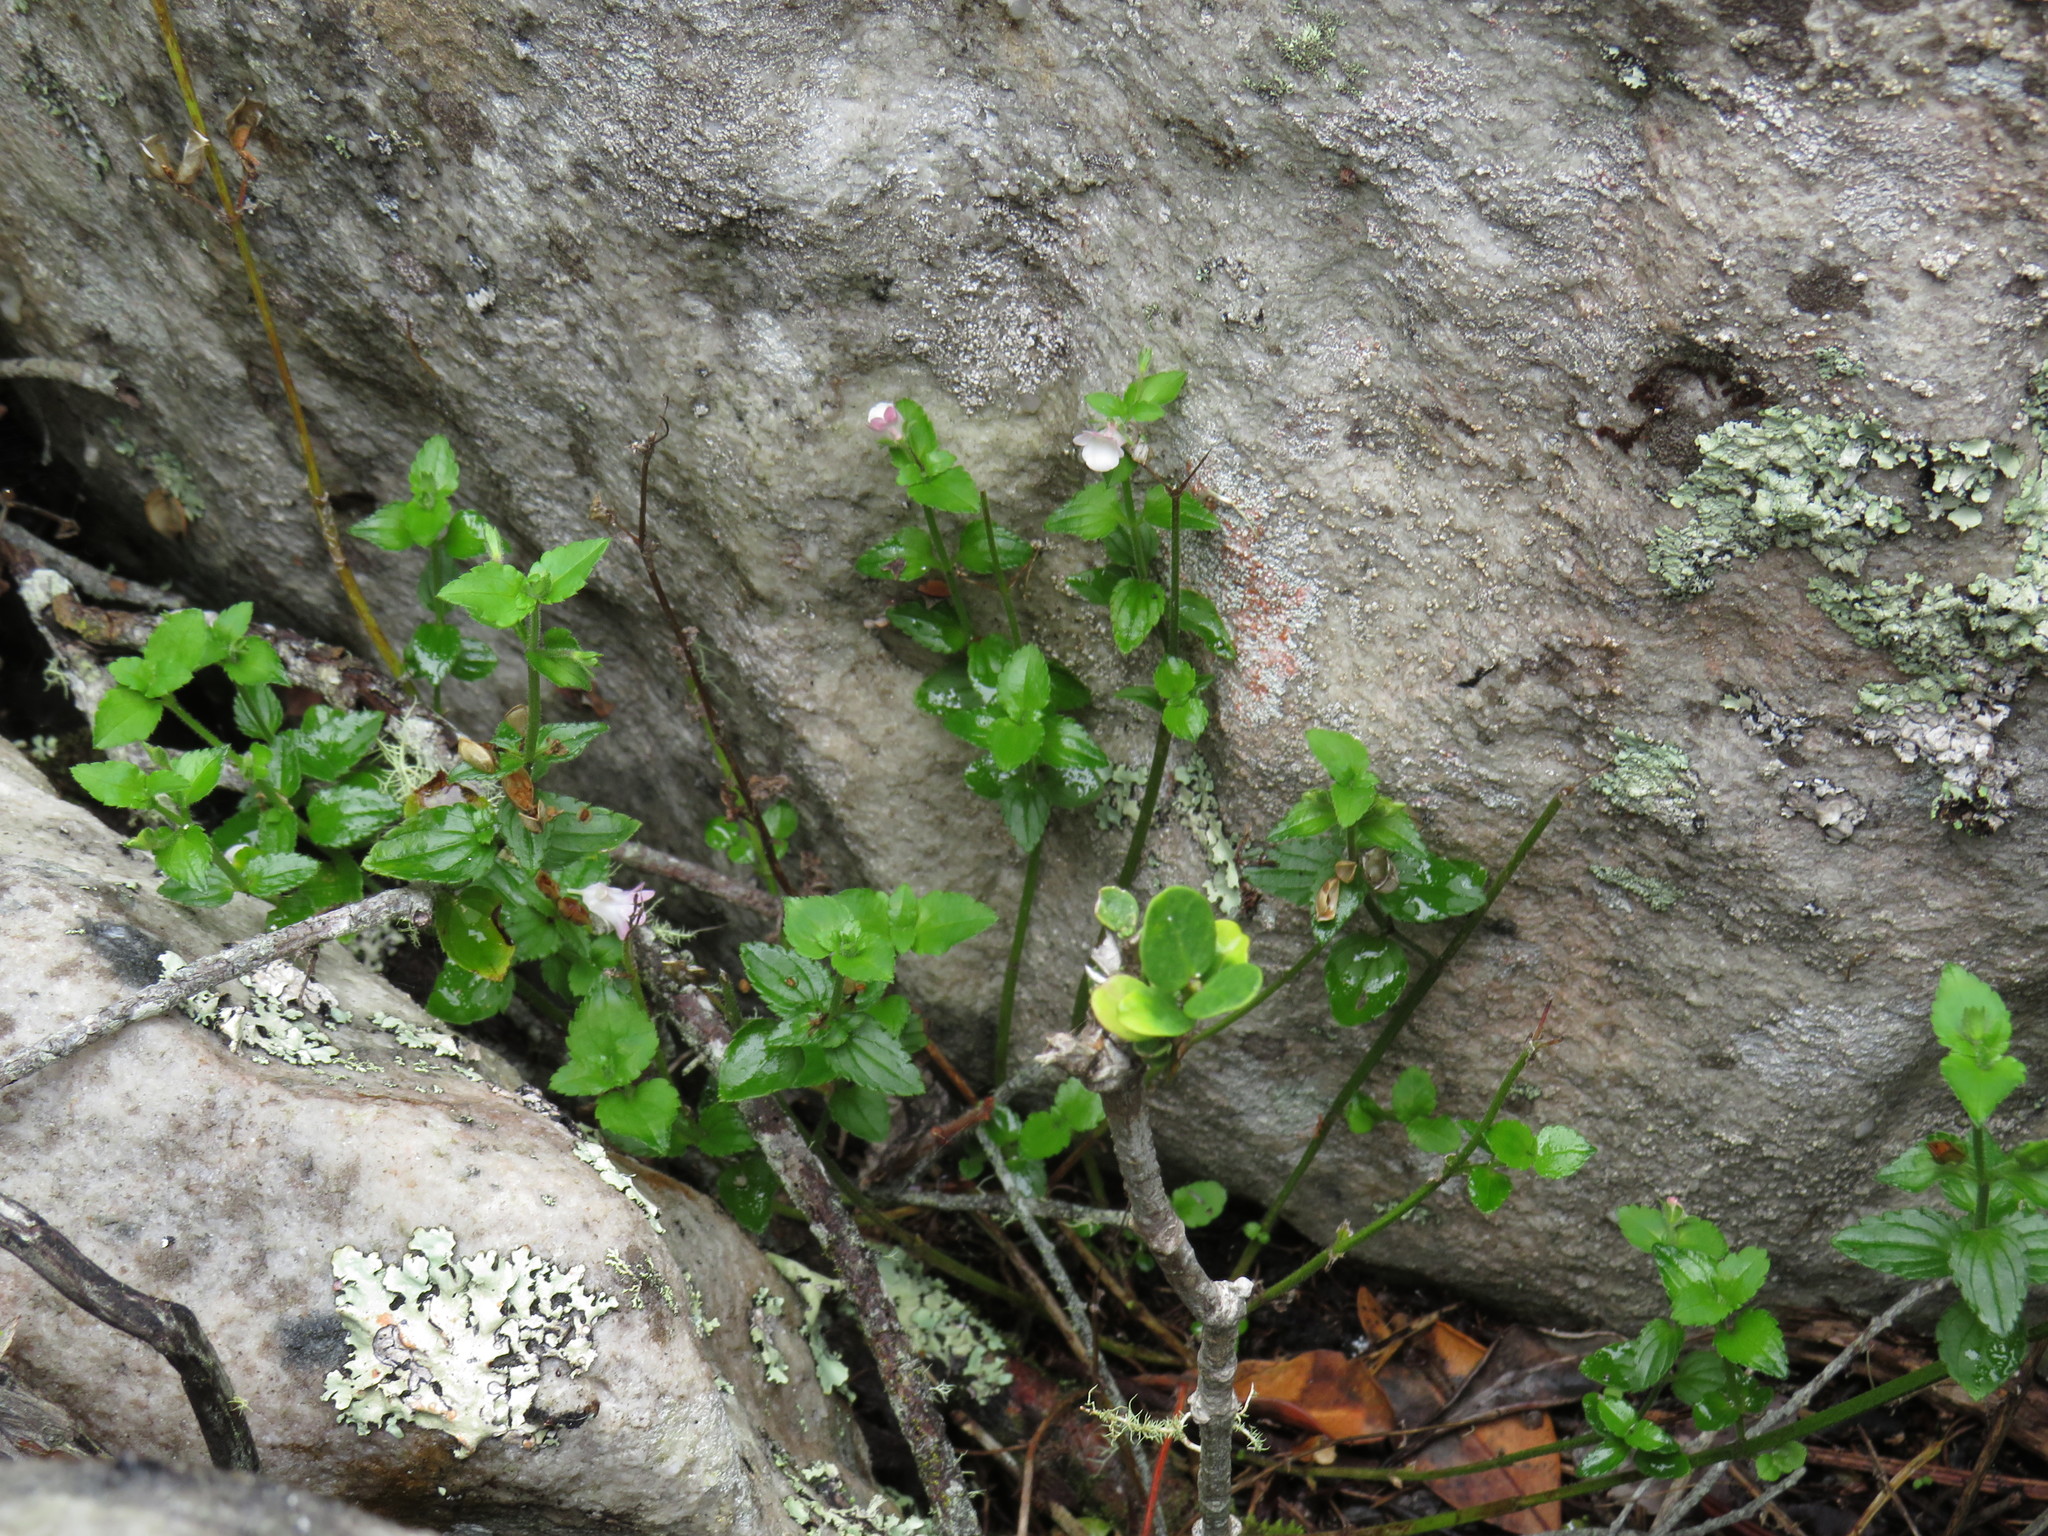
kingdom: Plantae
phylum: Tracheophyta
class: Magnoliopsida
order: Lamiales
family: Scrophulariaceae
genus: Nemesia
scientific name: Nemesia macrocarpa
